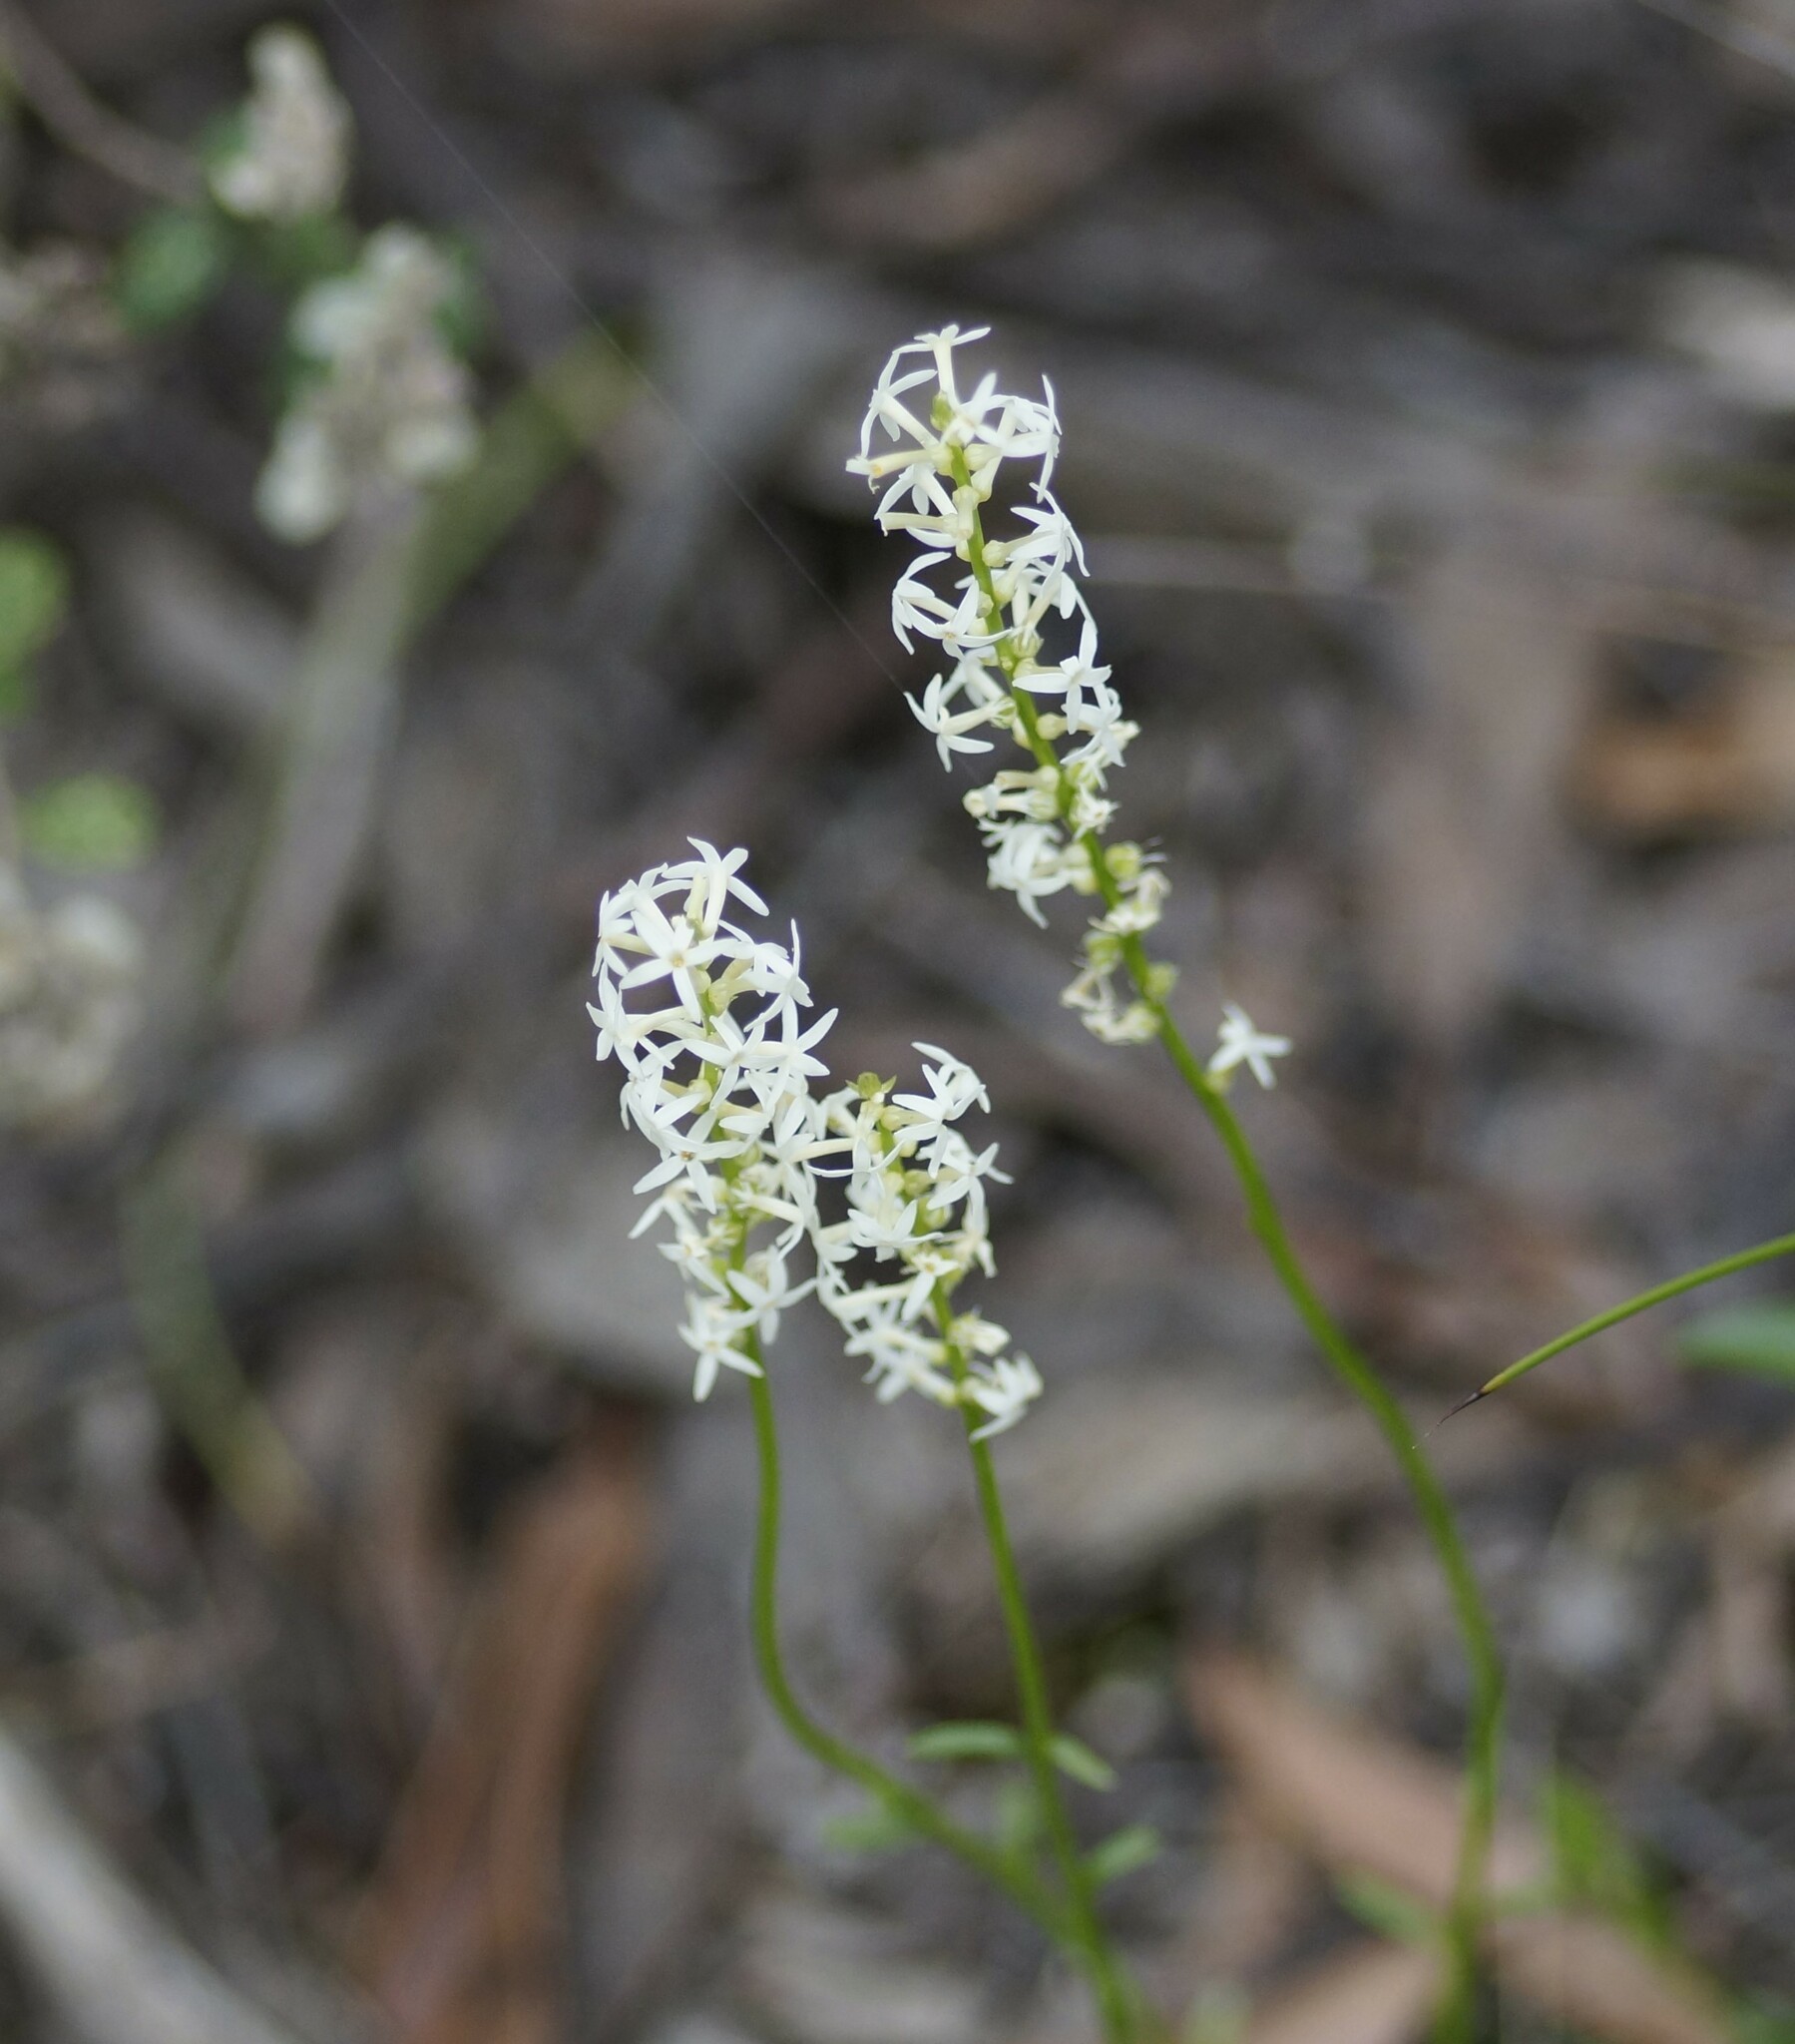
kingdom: Plantae
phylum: Tracheophyta
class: Magnoliopsida
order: Celastrales
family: Celastraceae
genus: Stackhousia
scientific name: Stackhousia monogyna
